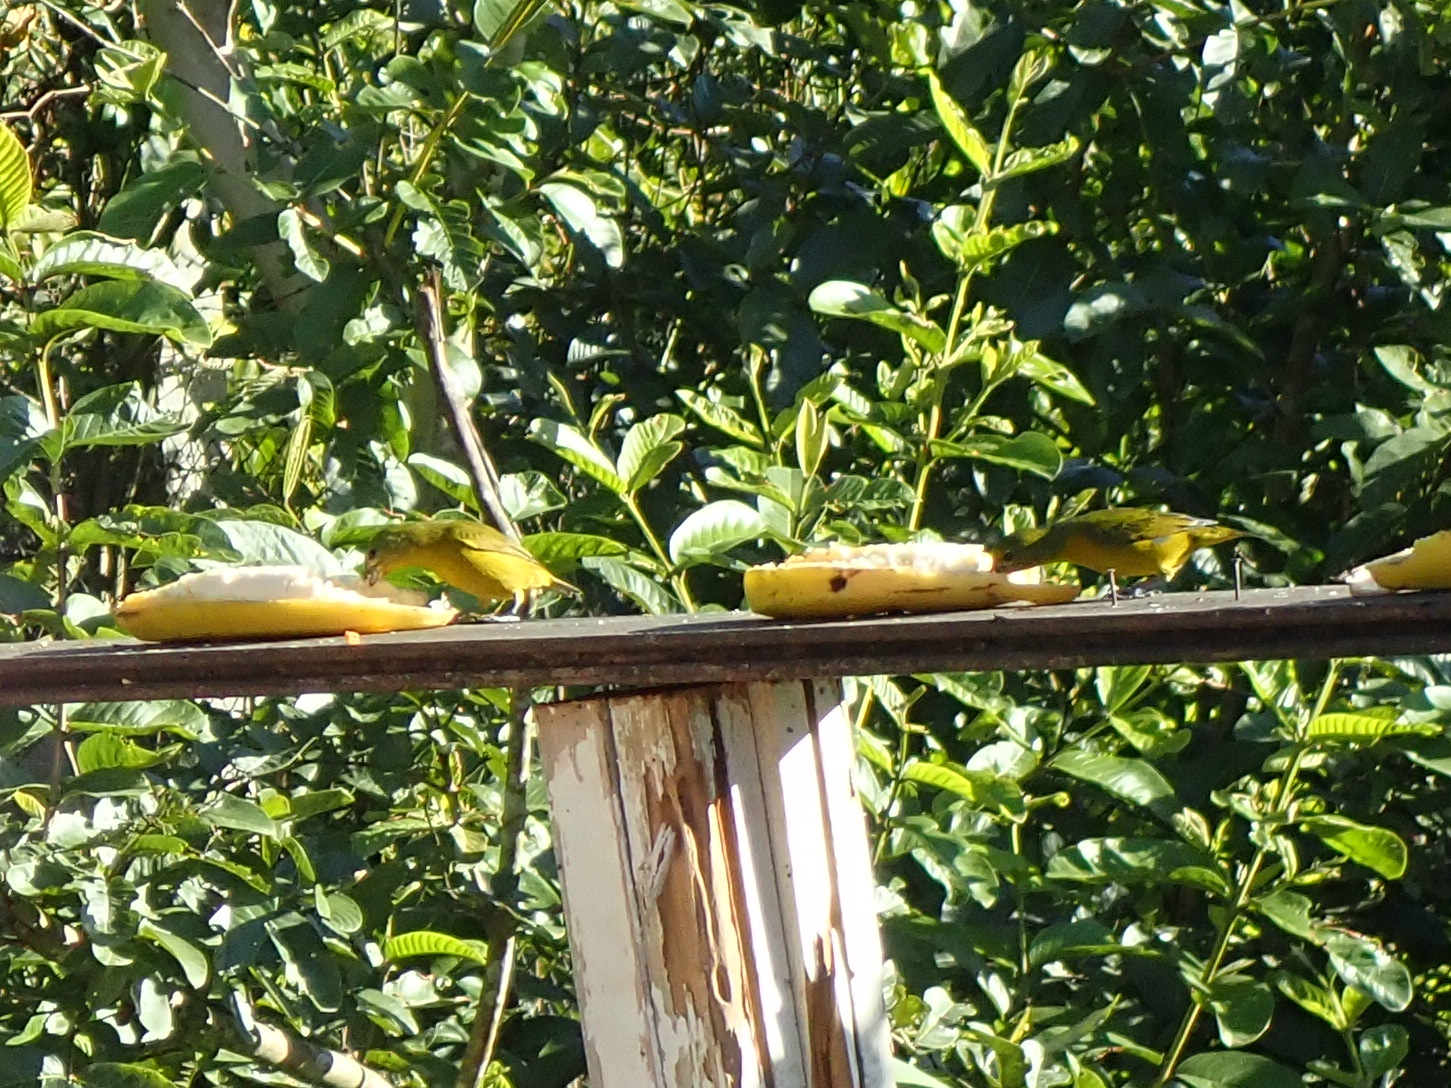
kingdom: Animalia
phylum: Chordata
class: Aves
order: Passeriformes
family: Fringillidae
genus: Euphonia
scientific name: Euphonia violacea
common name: Violaceous euphonia
